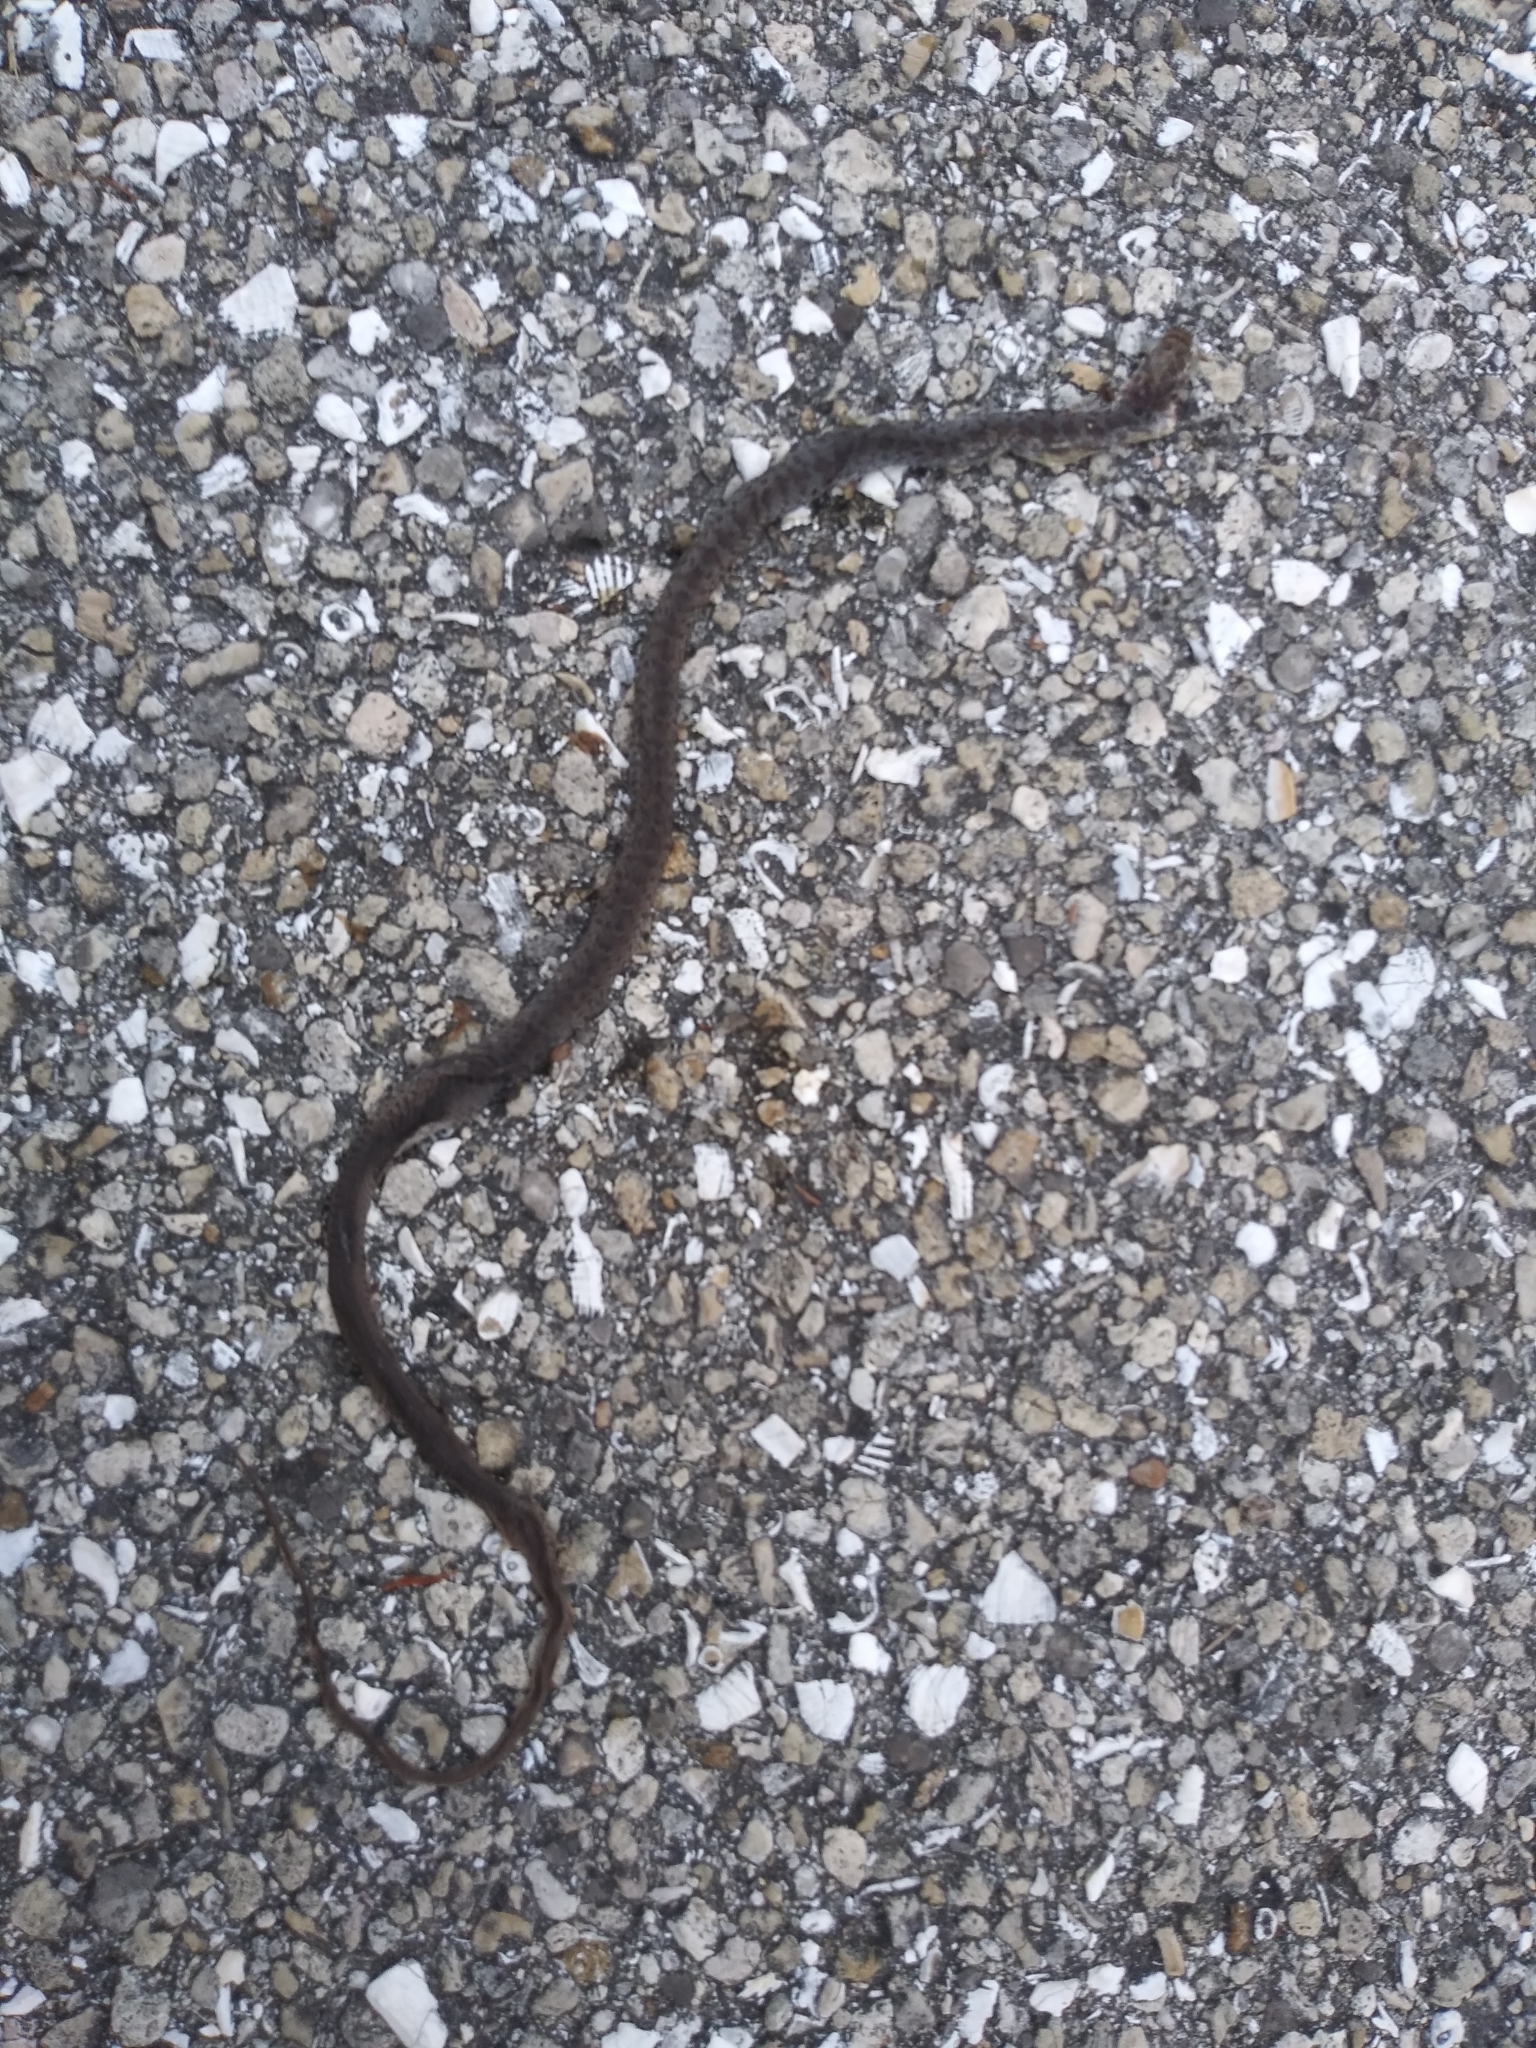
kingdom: Animalia
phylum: Chordata
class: Squamata
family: Colubridae
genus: Coluber
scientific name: Coluber constrictor
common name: Eastern racer
